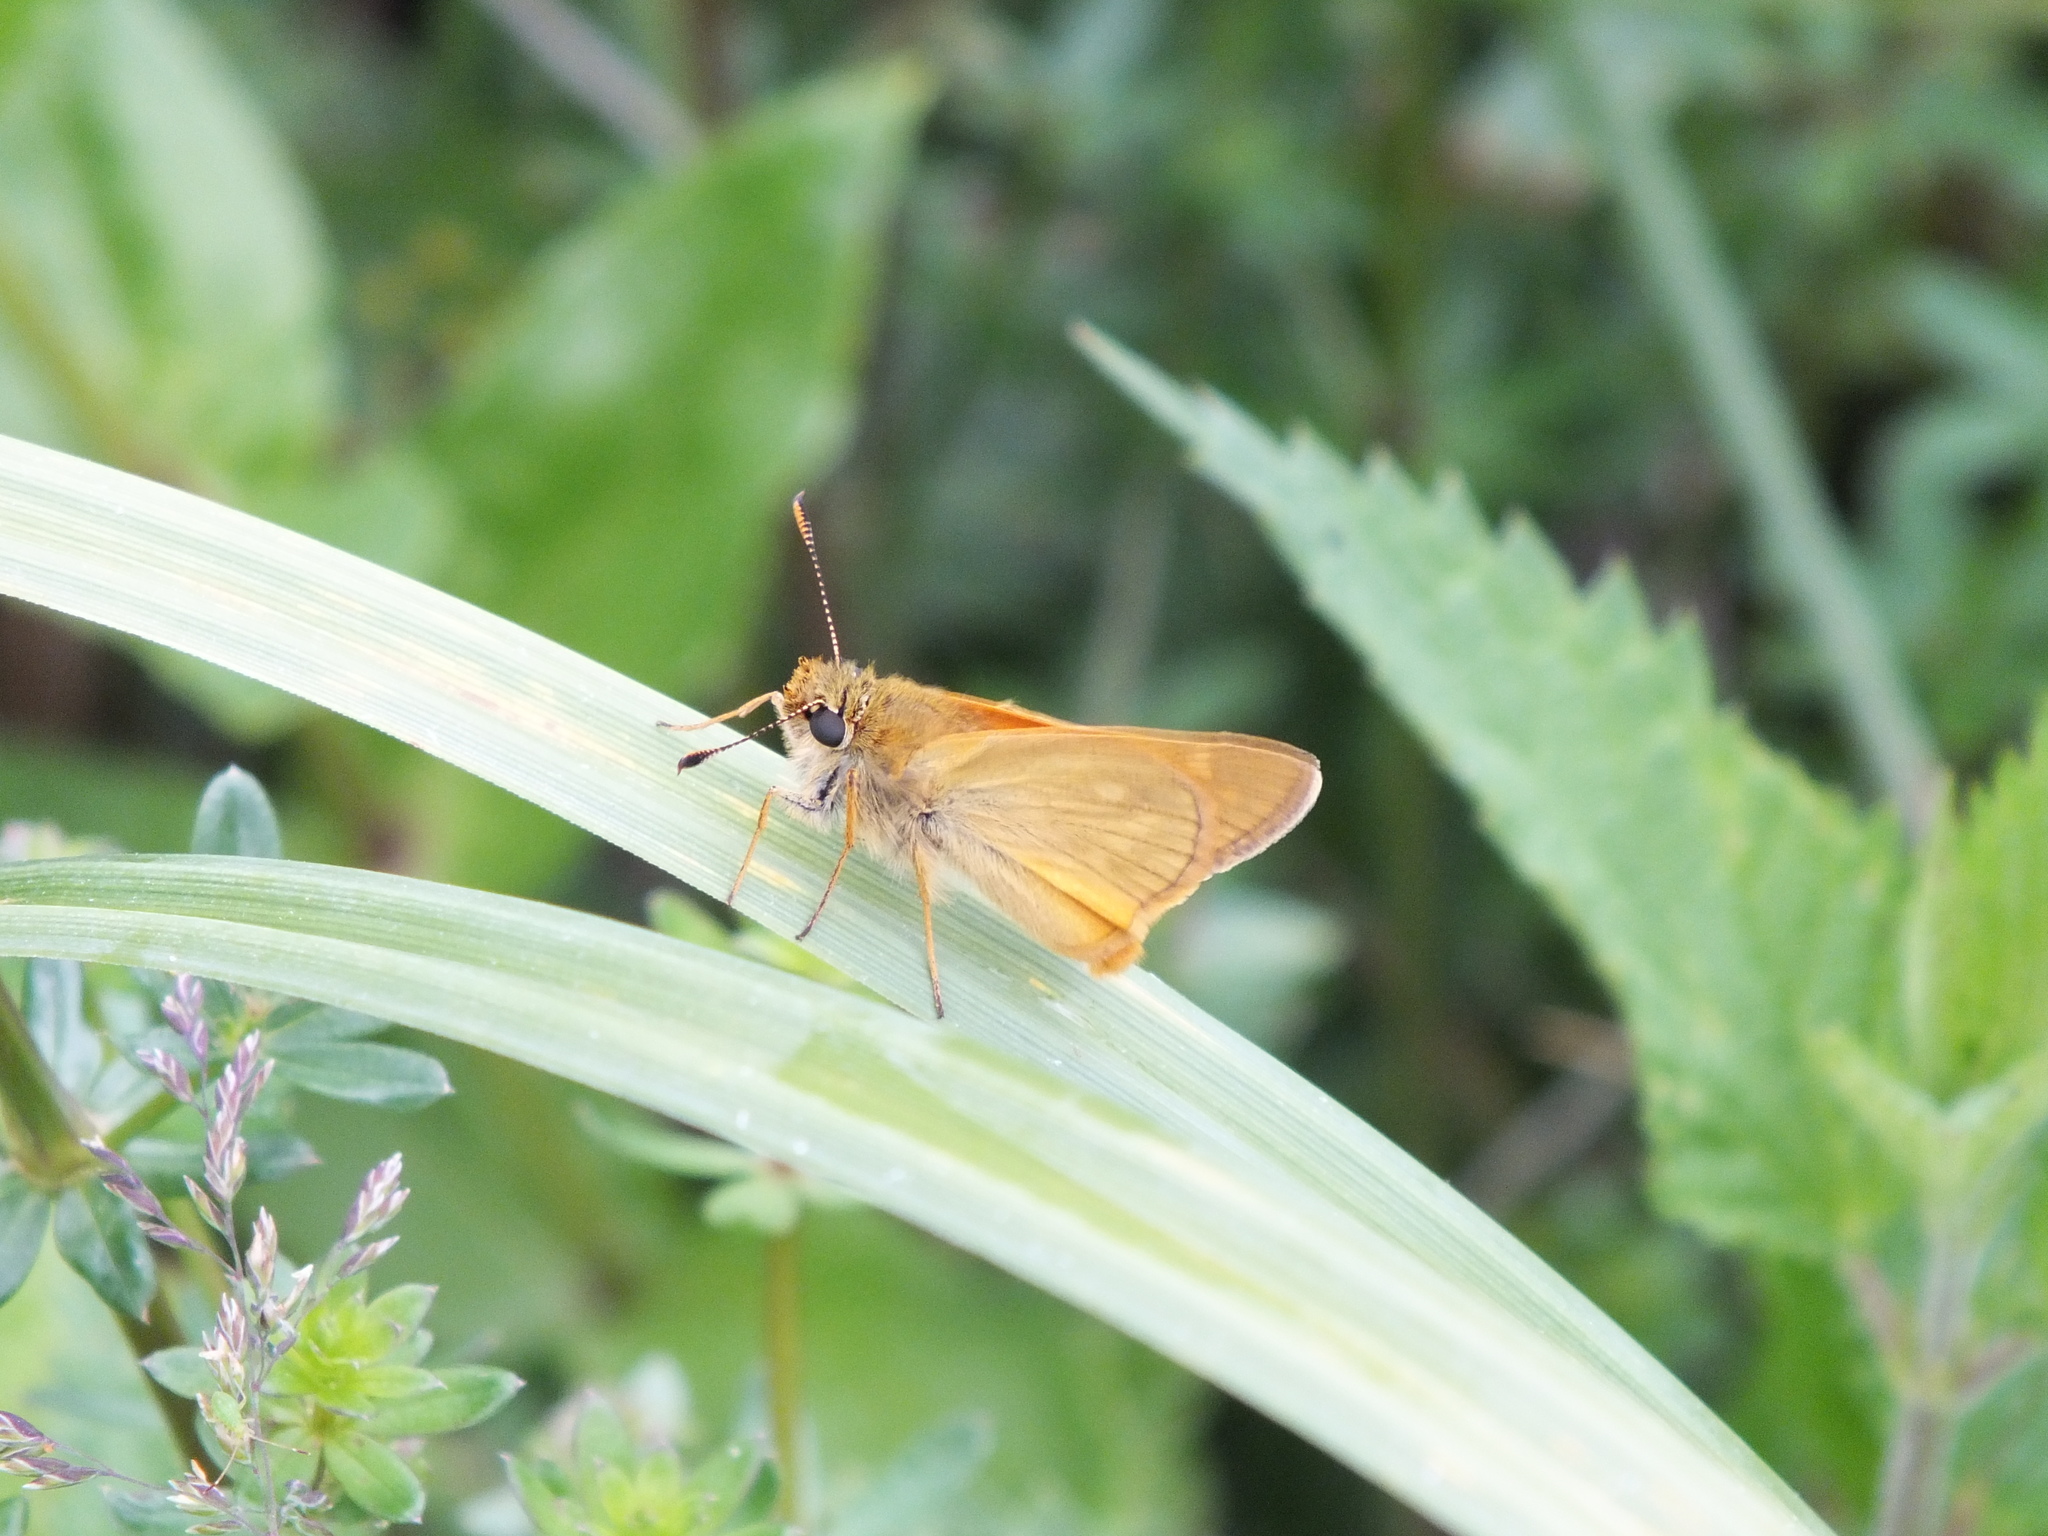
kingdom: Animalia
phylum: Arthropoda
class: Insecta
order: Lepidoptera
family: Hesperiidae
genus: Ochlodes
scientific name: Ochlodes venata
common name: Large skipper
